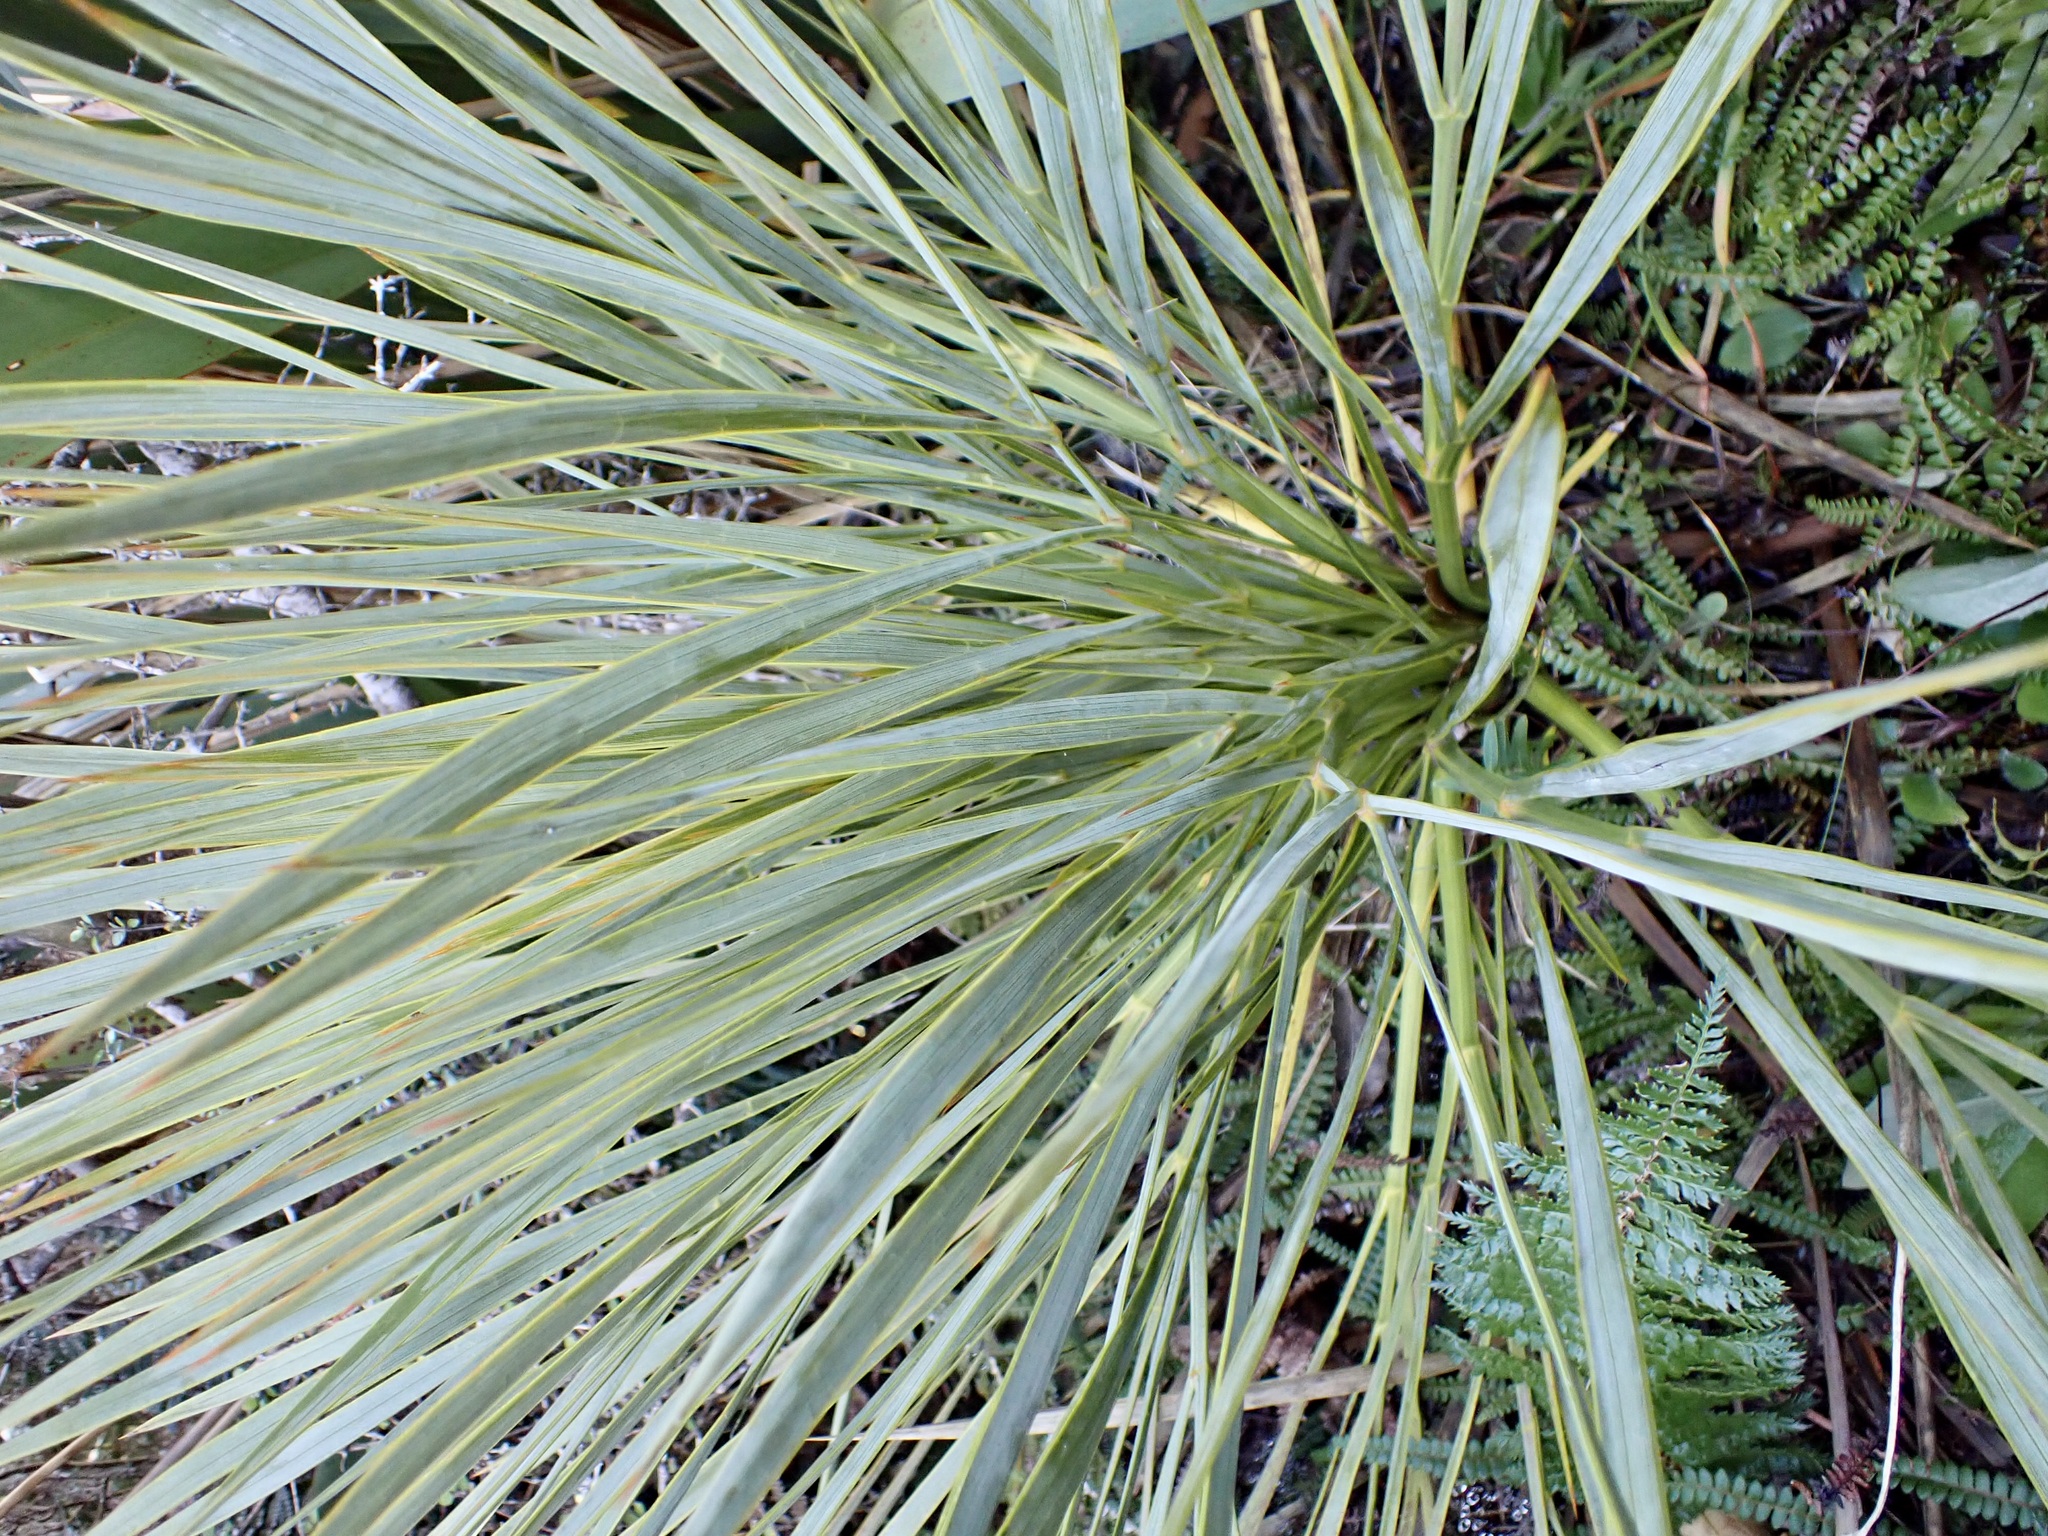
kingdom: Plantae
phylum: Tracheophyta
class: Magnoliopsida
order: Apiales
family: Apiaceae
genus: Aciphylla
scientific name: Aciphylla aurea
